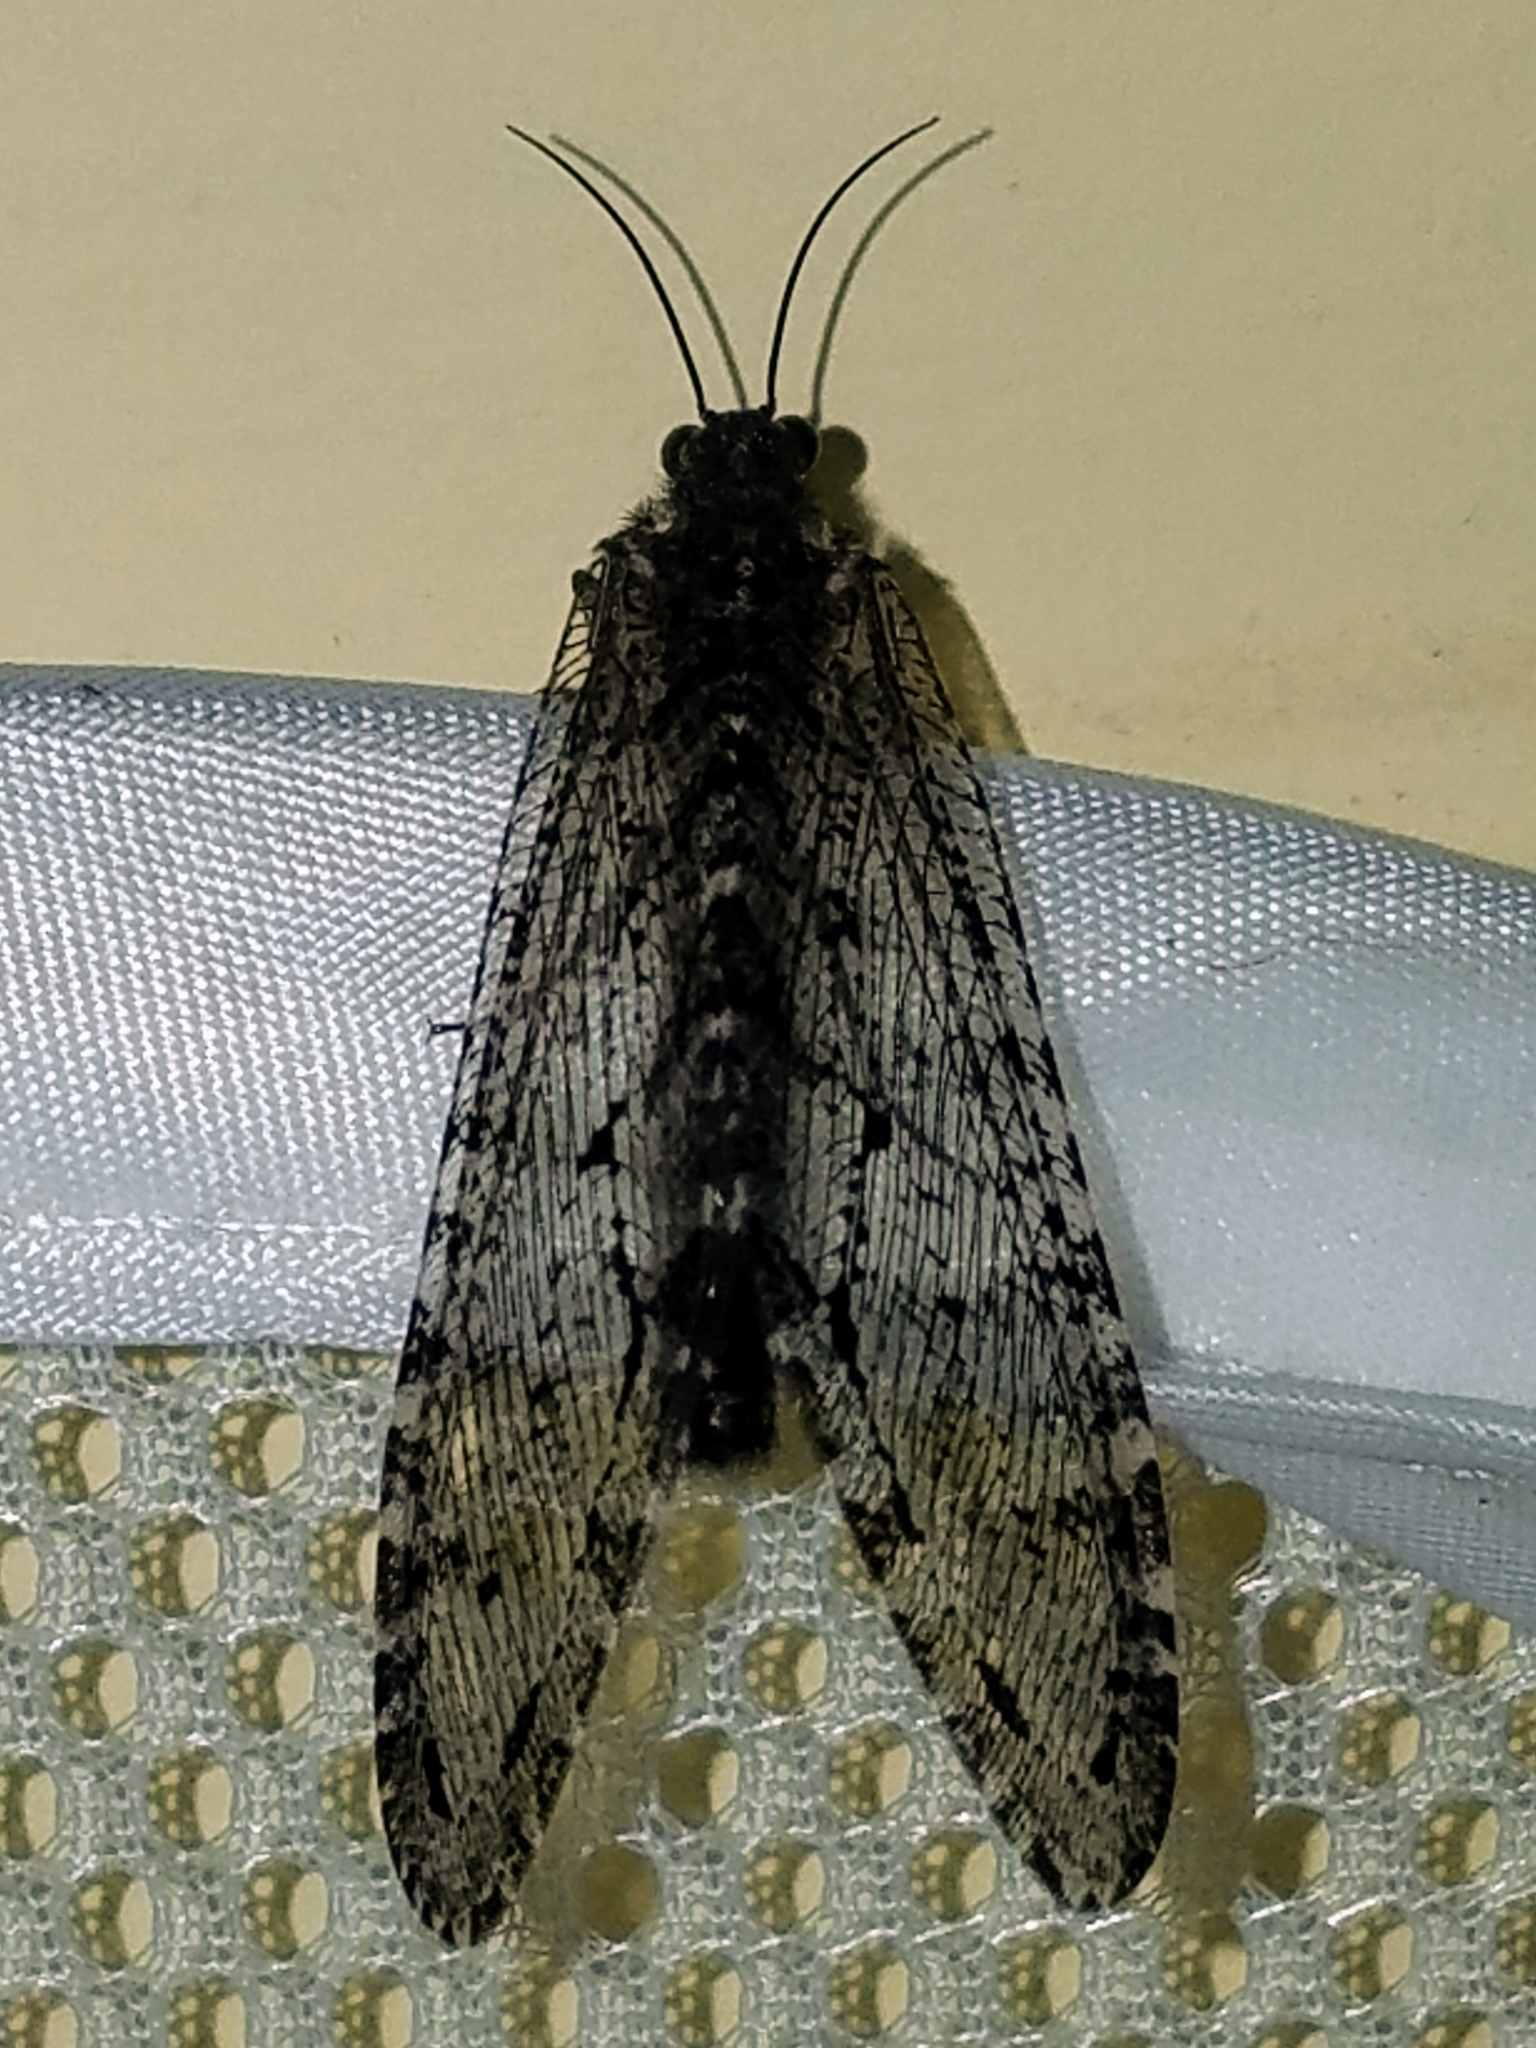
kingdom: Animalia
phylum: Arthropoda
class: Insecta
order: Neuroptera
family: Ithonidae
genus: Polystoechotes
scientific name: Polystoechotes punctata
